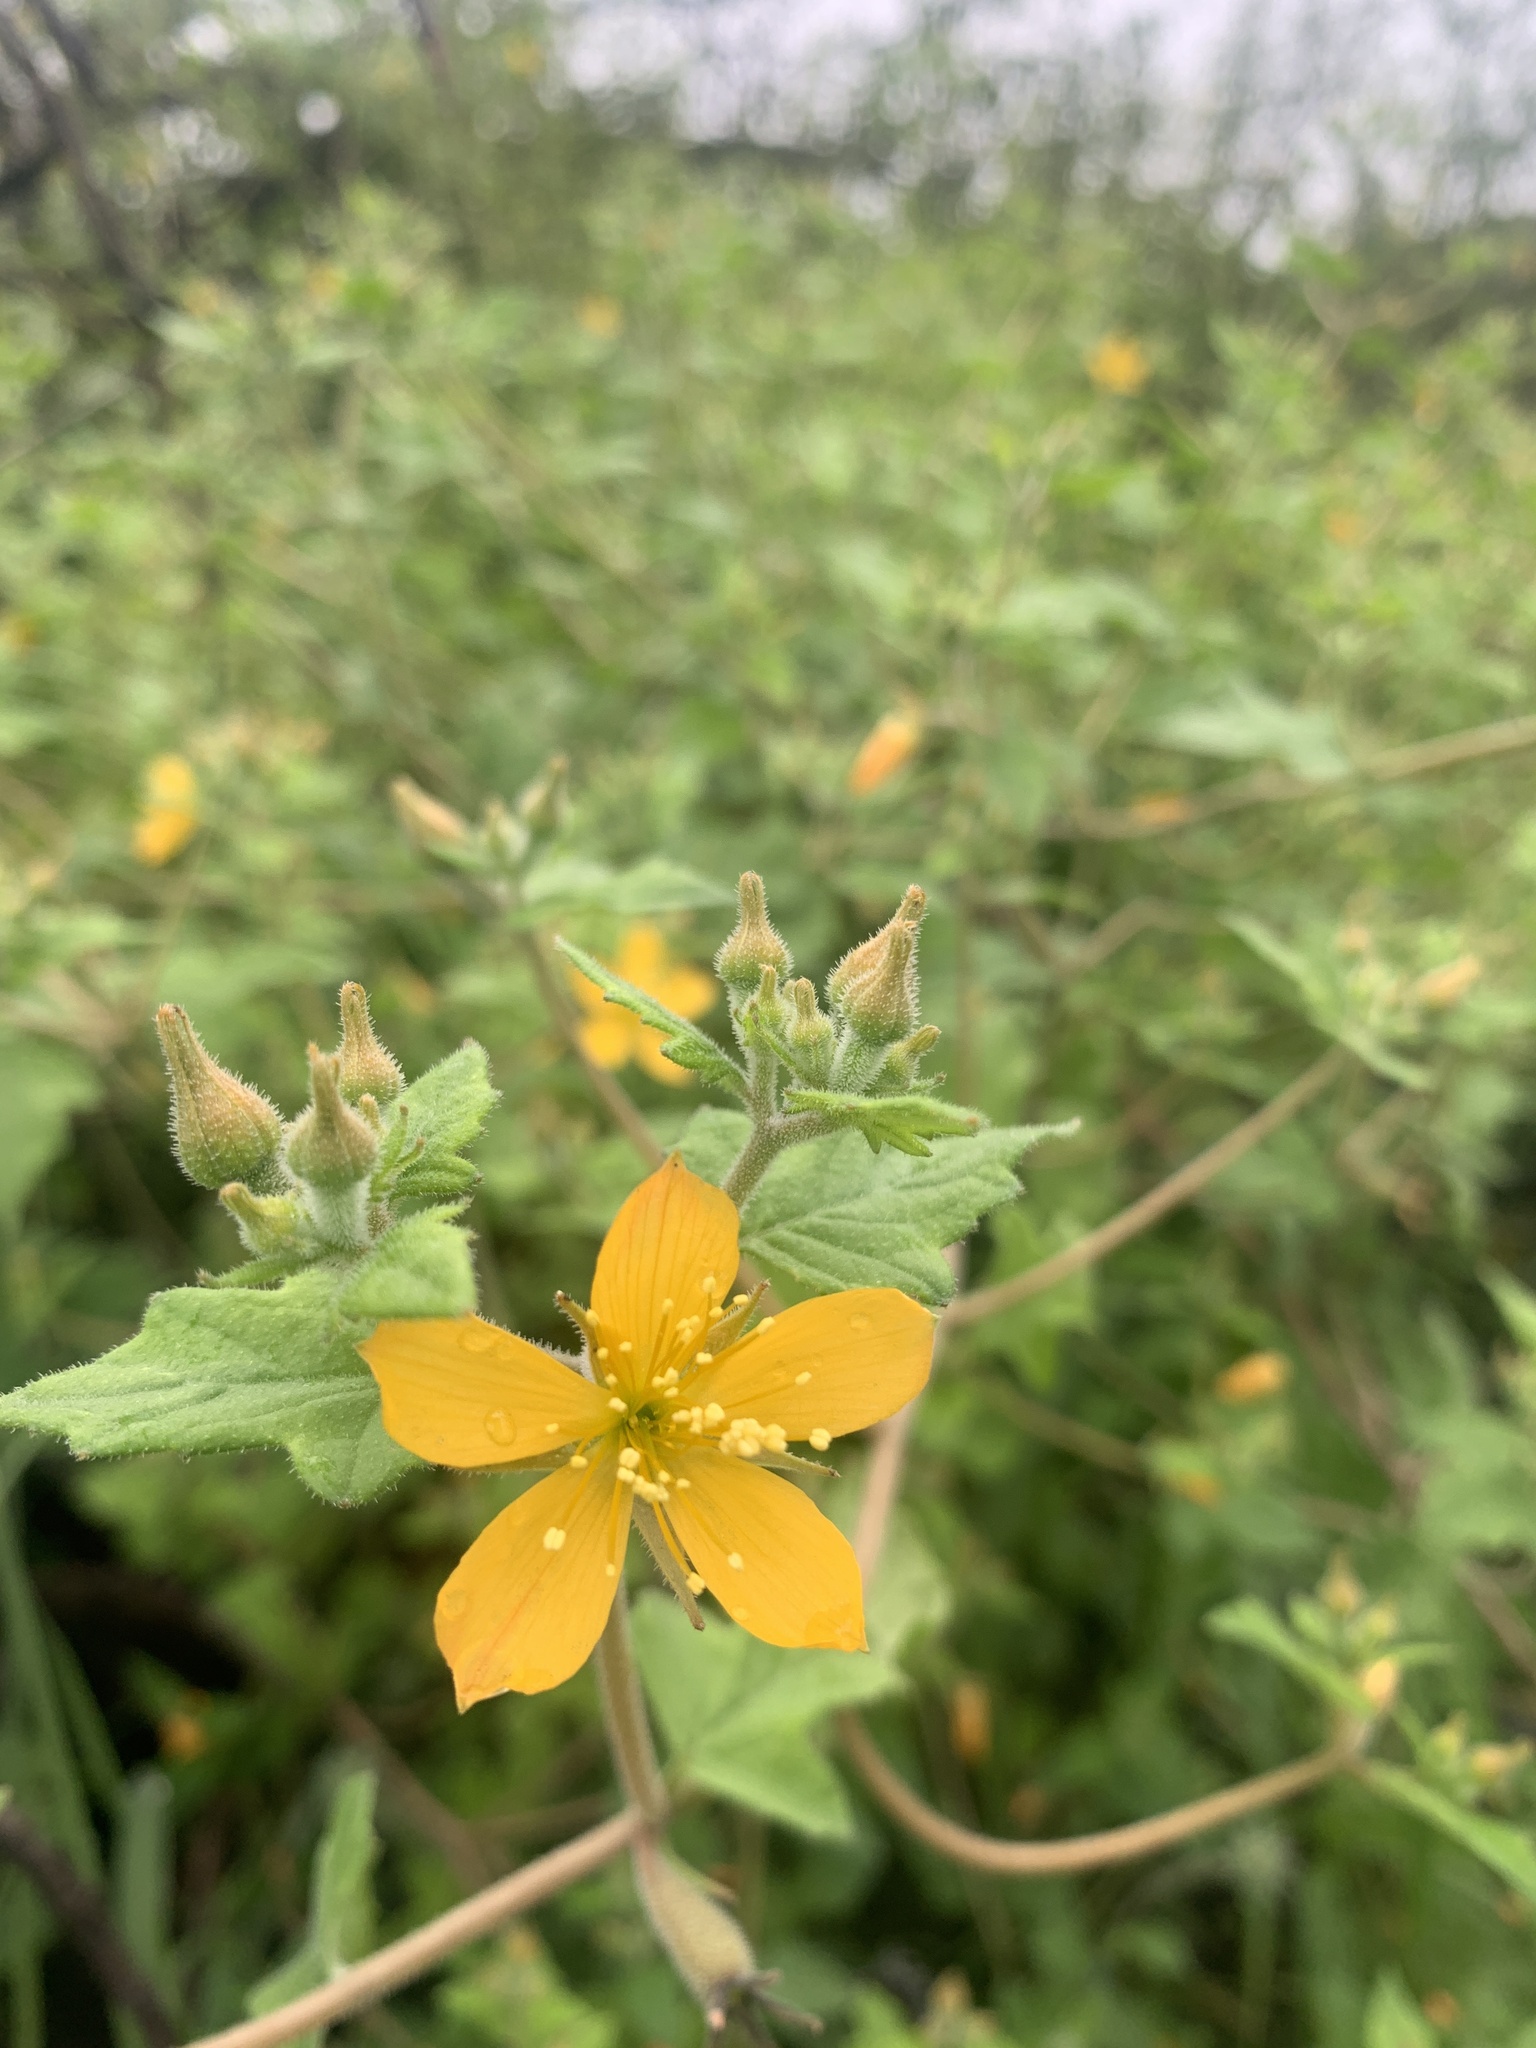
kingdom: Plantae
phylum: Tracheophyta
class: Magnoliopsida
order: Cornales
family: Loasaceae
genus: Mentzelia
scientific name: Mentzelia oligosperma
